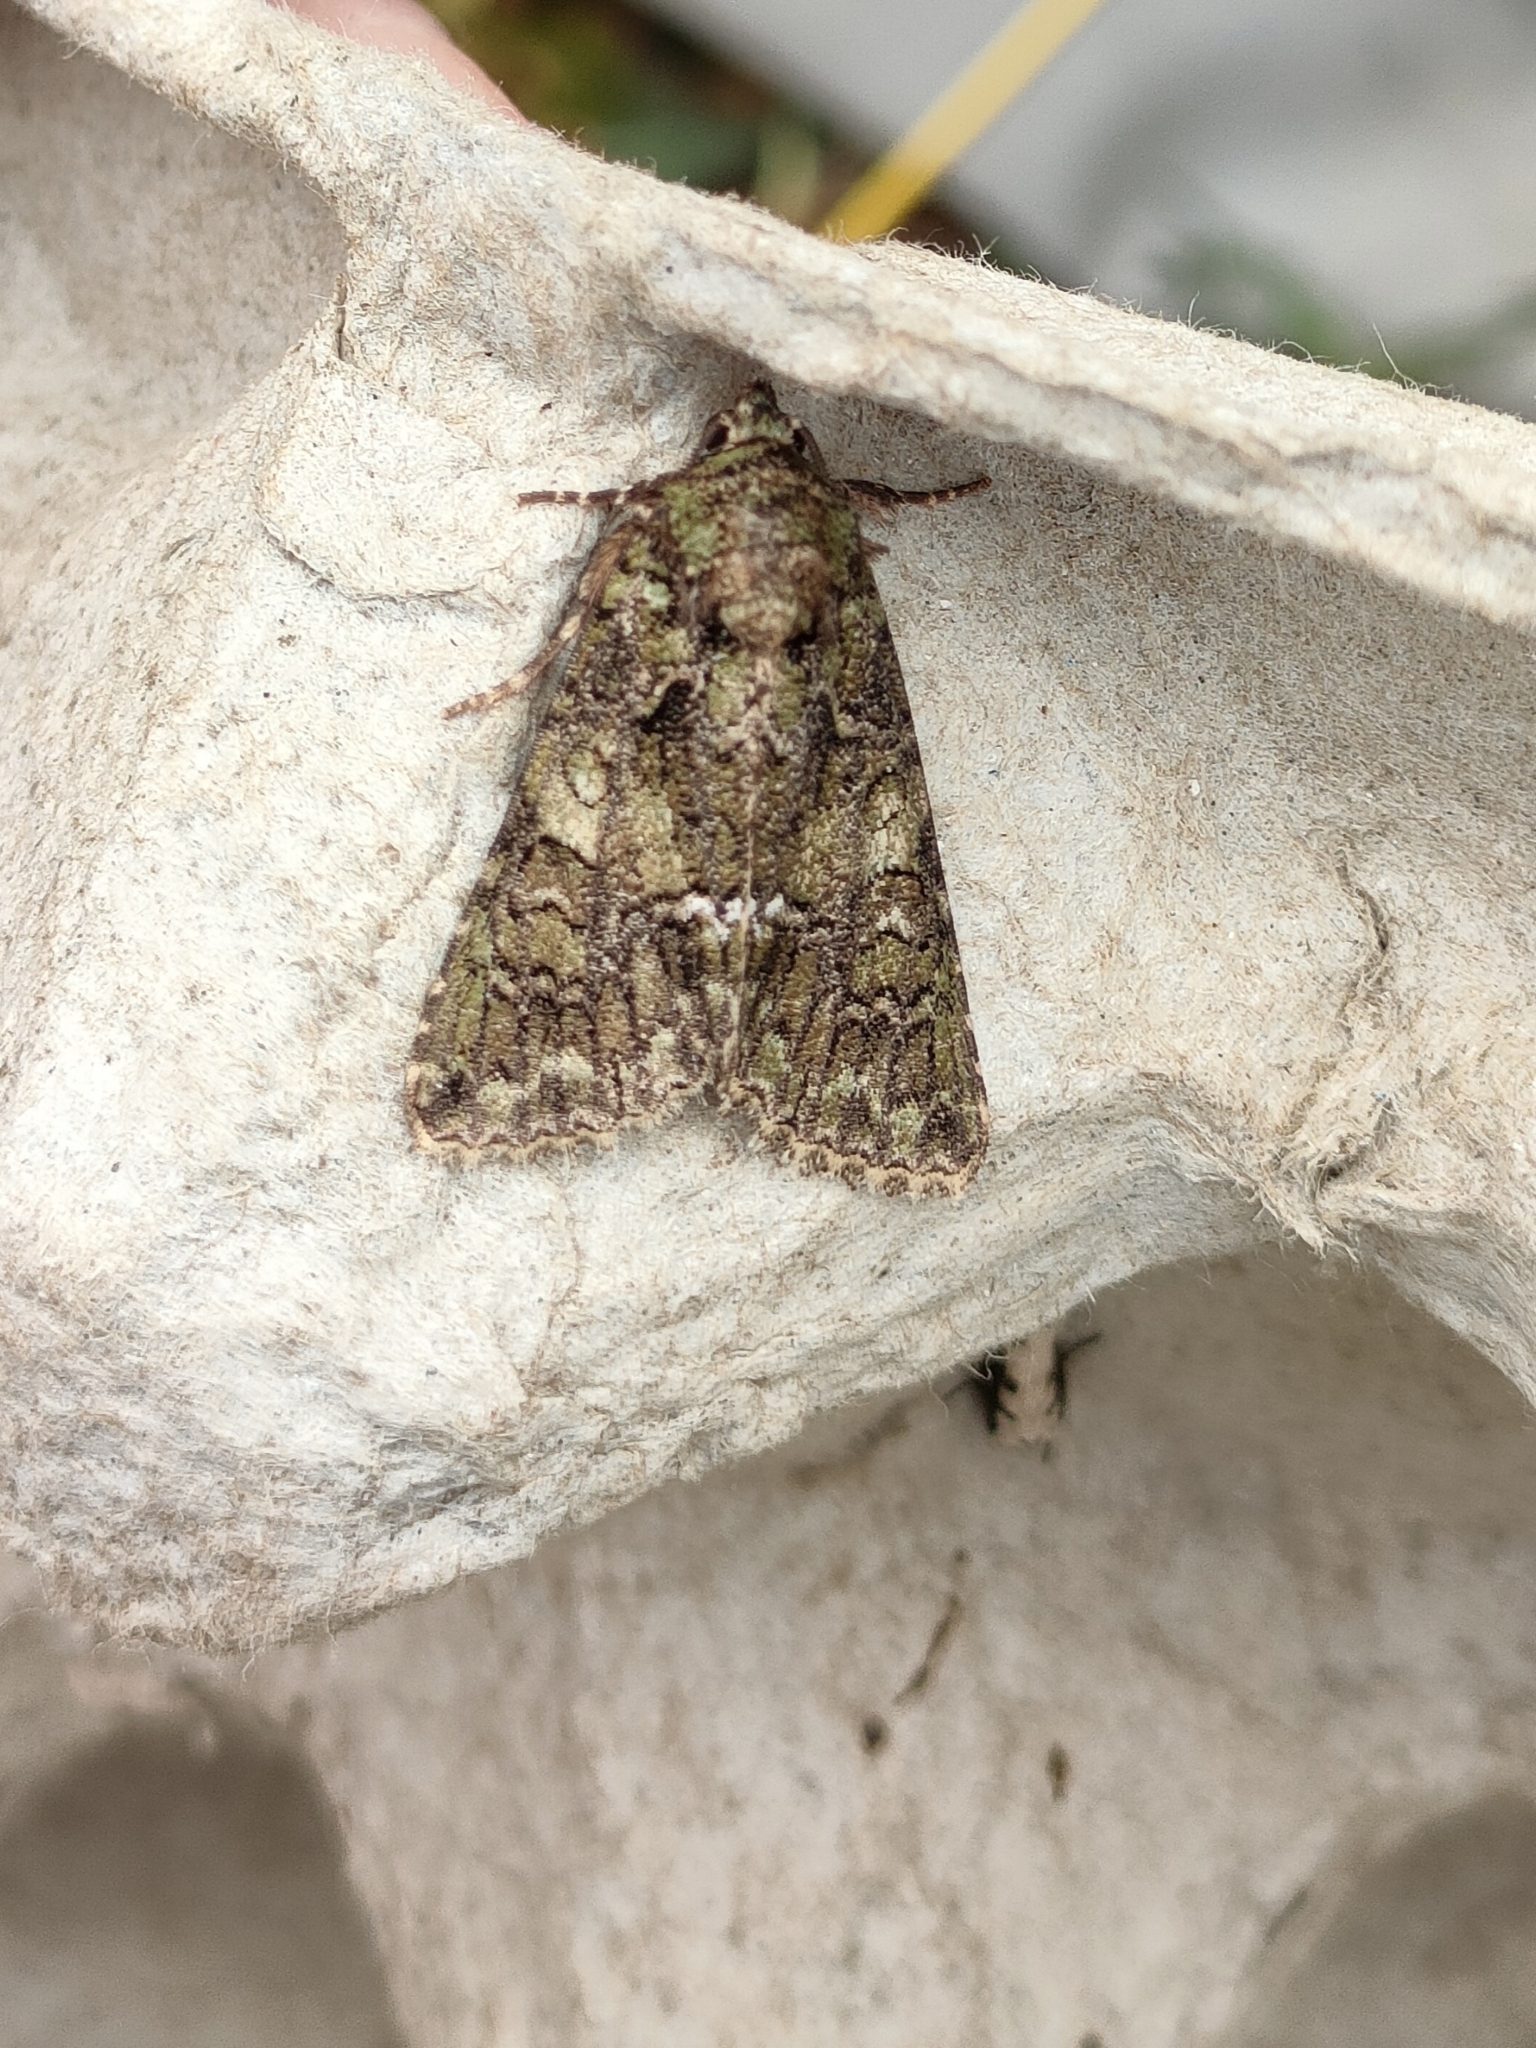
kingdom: Animalia
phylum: Arthropoda
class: Insecta
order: Lepidoptera
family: Noctuidae
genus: Polyphaenis
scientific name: Polyphaenis sericata
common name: Guernsey underwing
